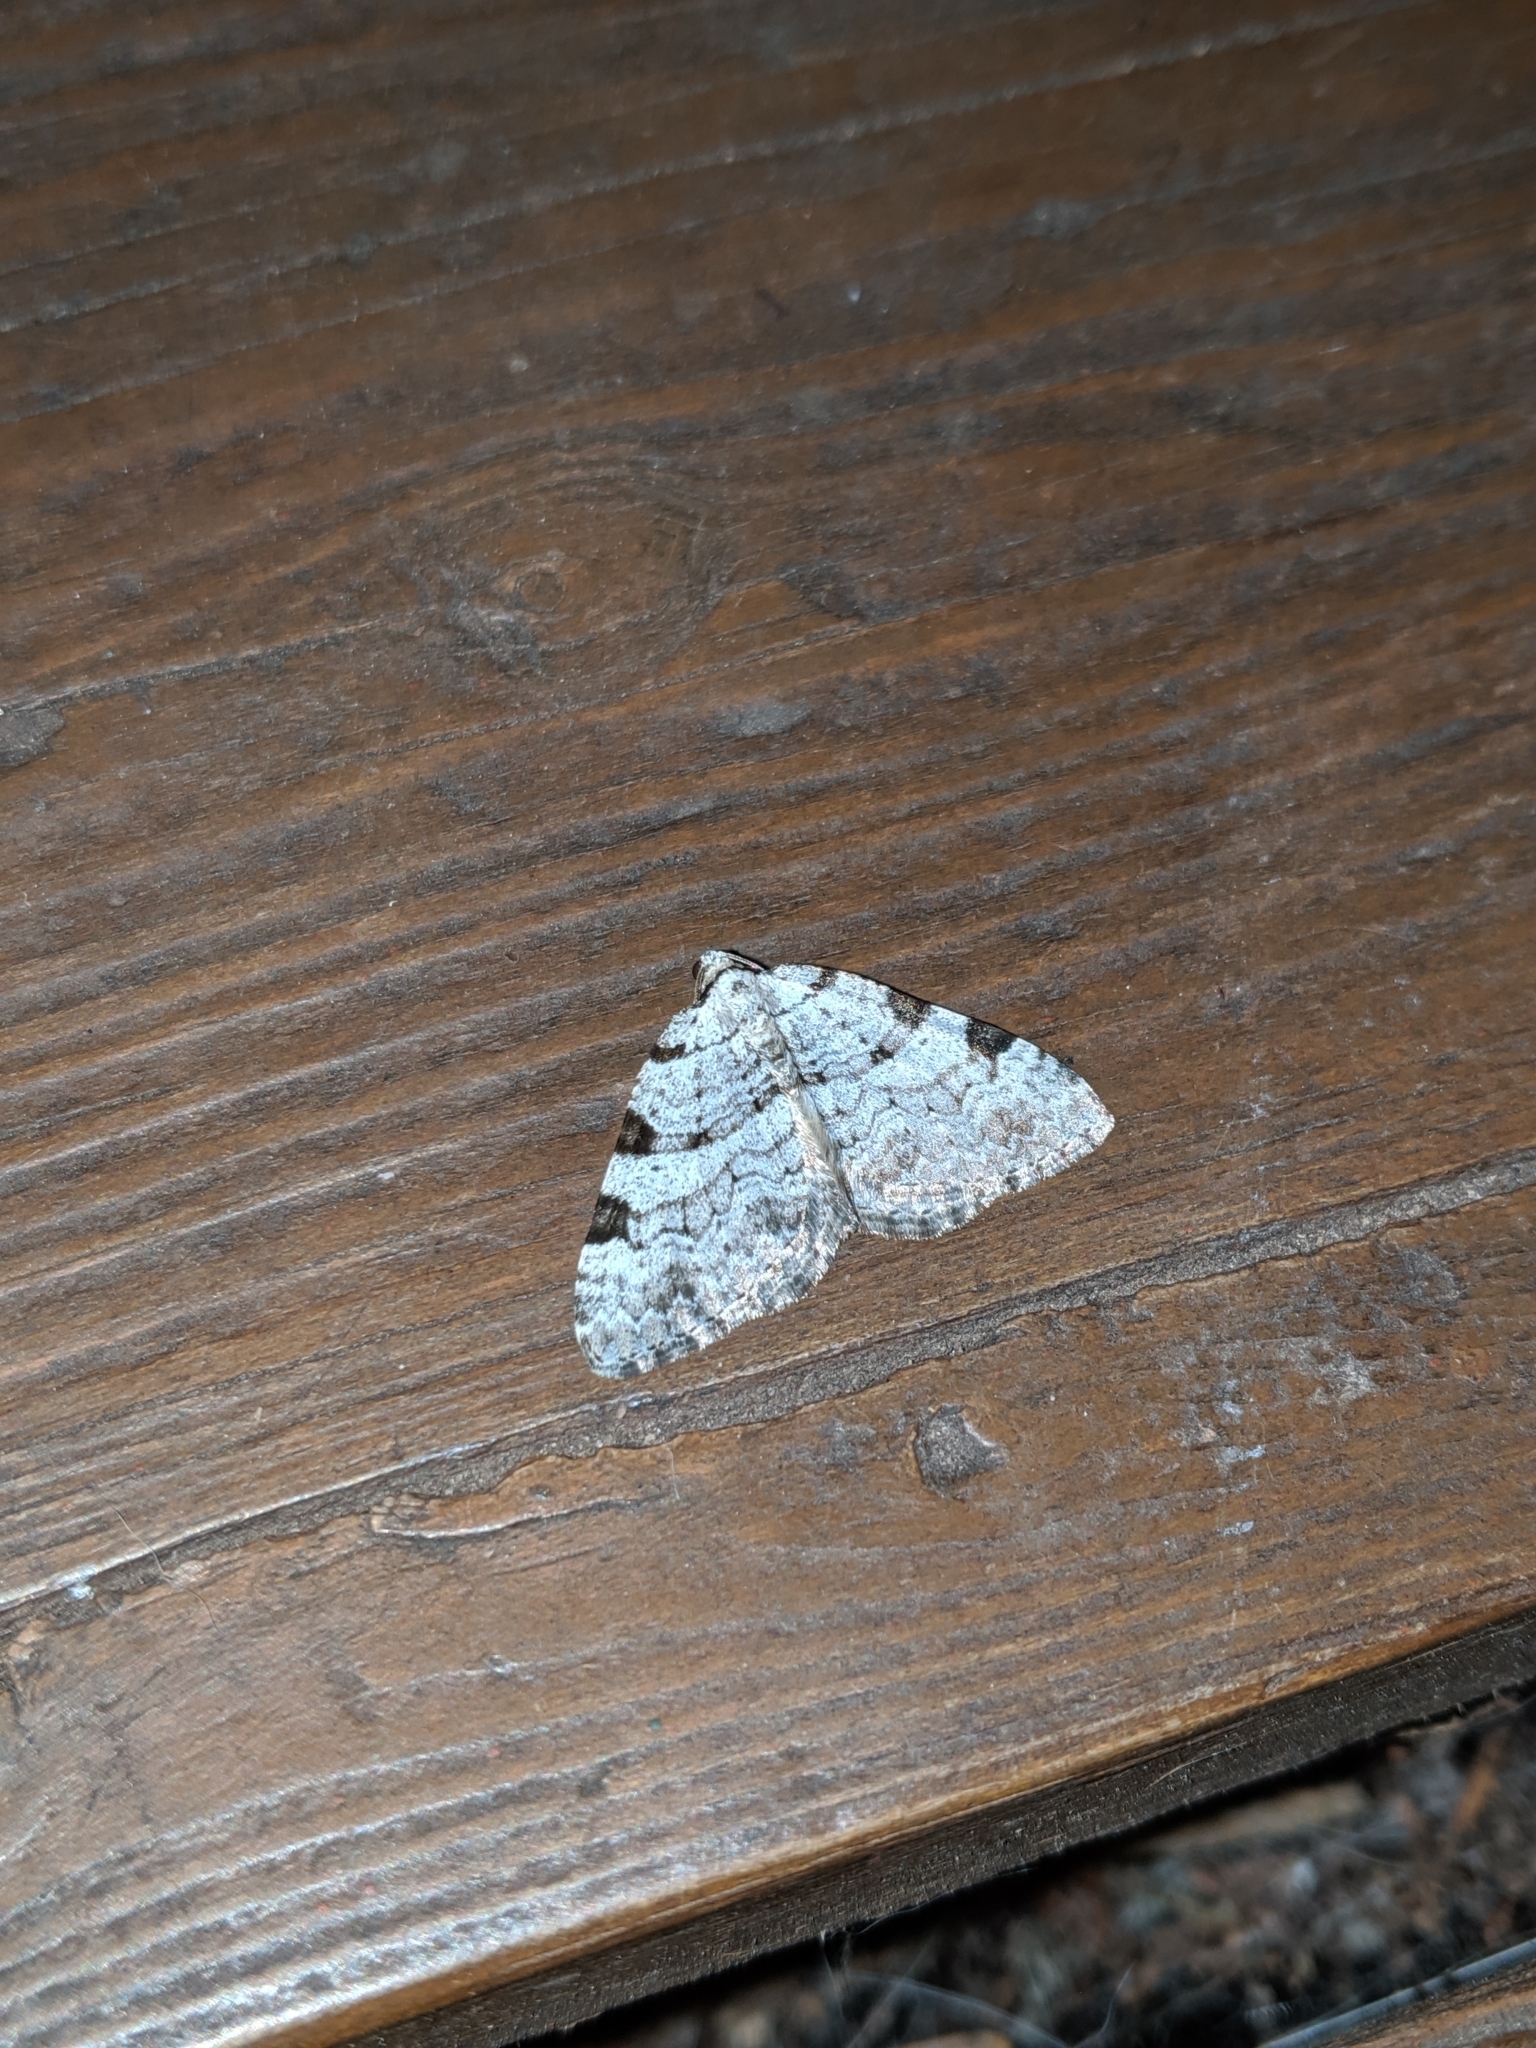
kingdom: Animalia
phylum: Arthropoda
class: Insecta
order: Lepidoptera
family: Geometridae
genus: Perizoma
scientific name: Perizoma costiguttata
